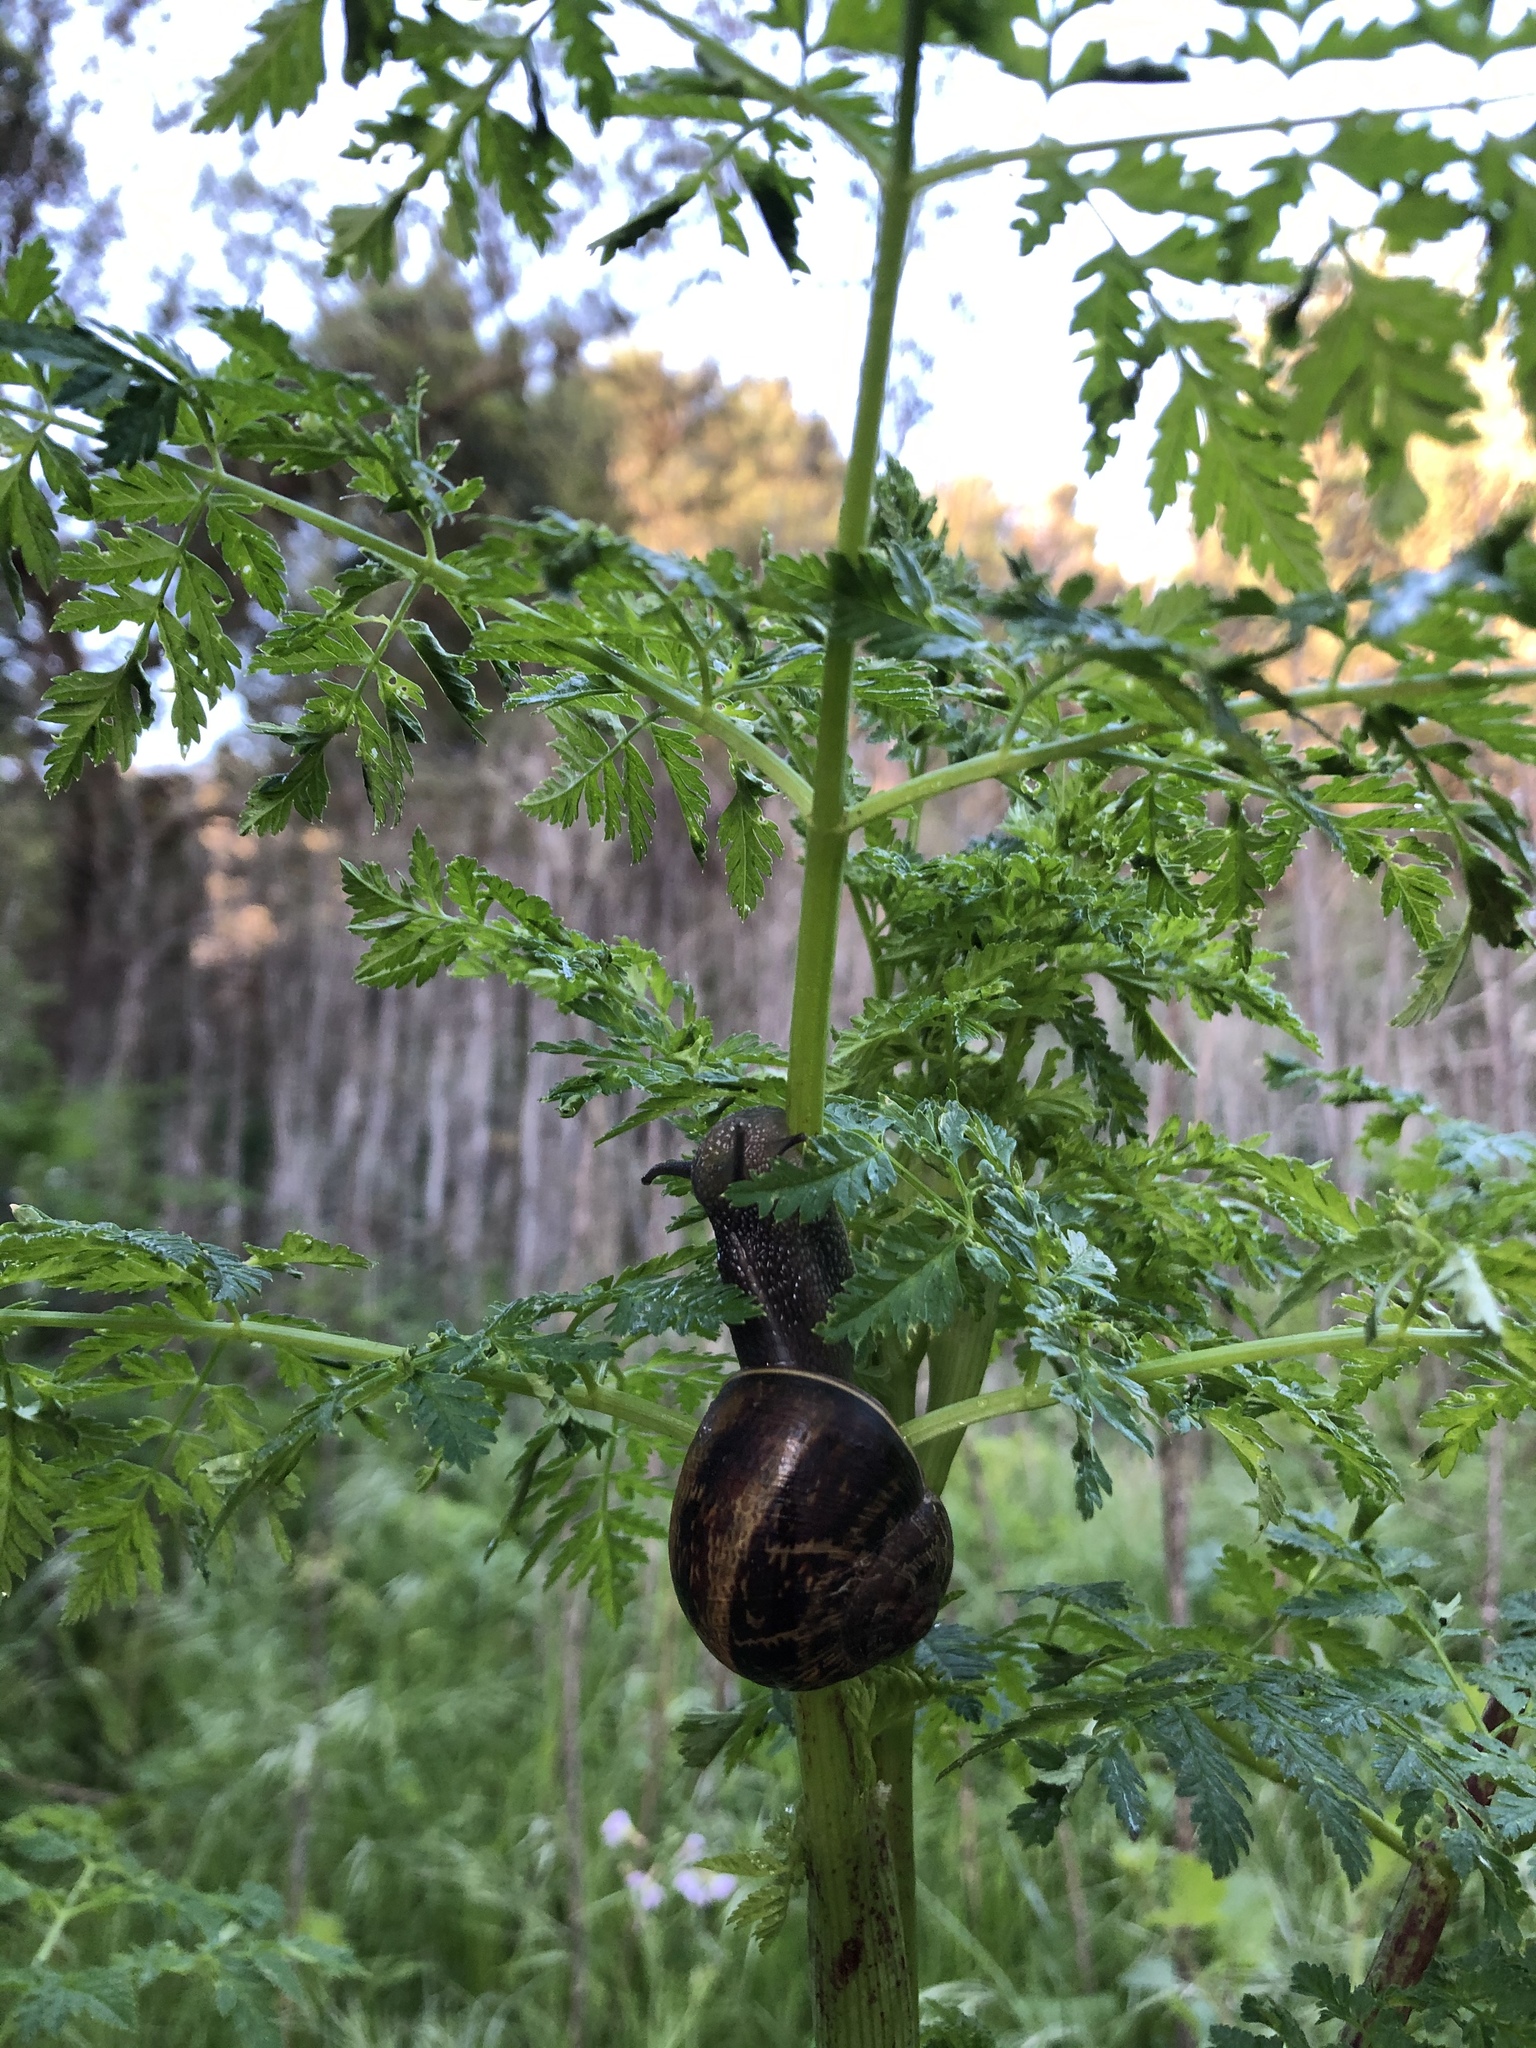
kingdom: Animalia
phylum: Mollusca
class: Gastropoda
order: Stylommatophora
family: Helicidae
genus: Cornu
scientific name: Cornu aspersum
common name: Brown garden snail
